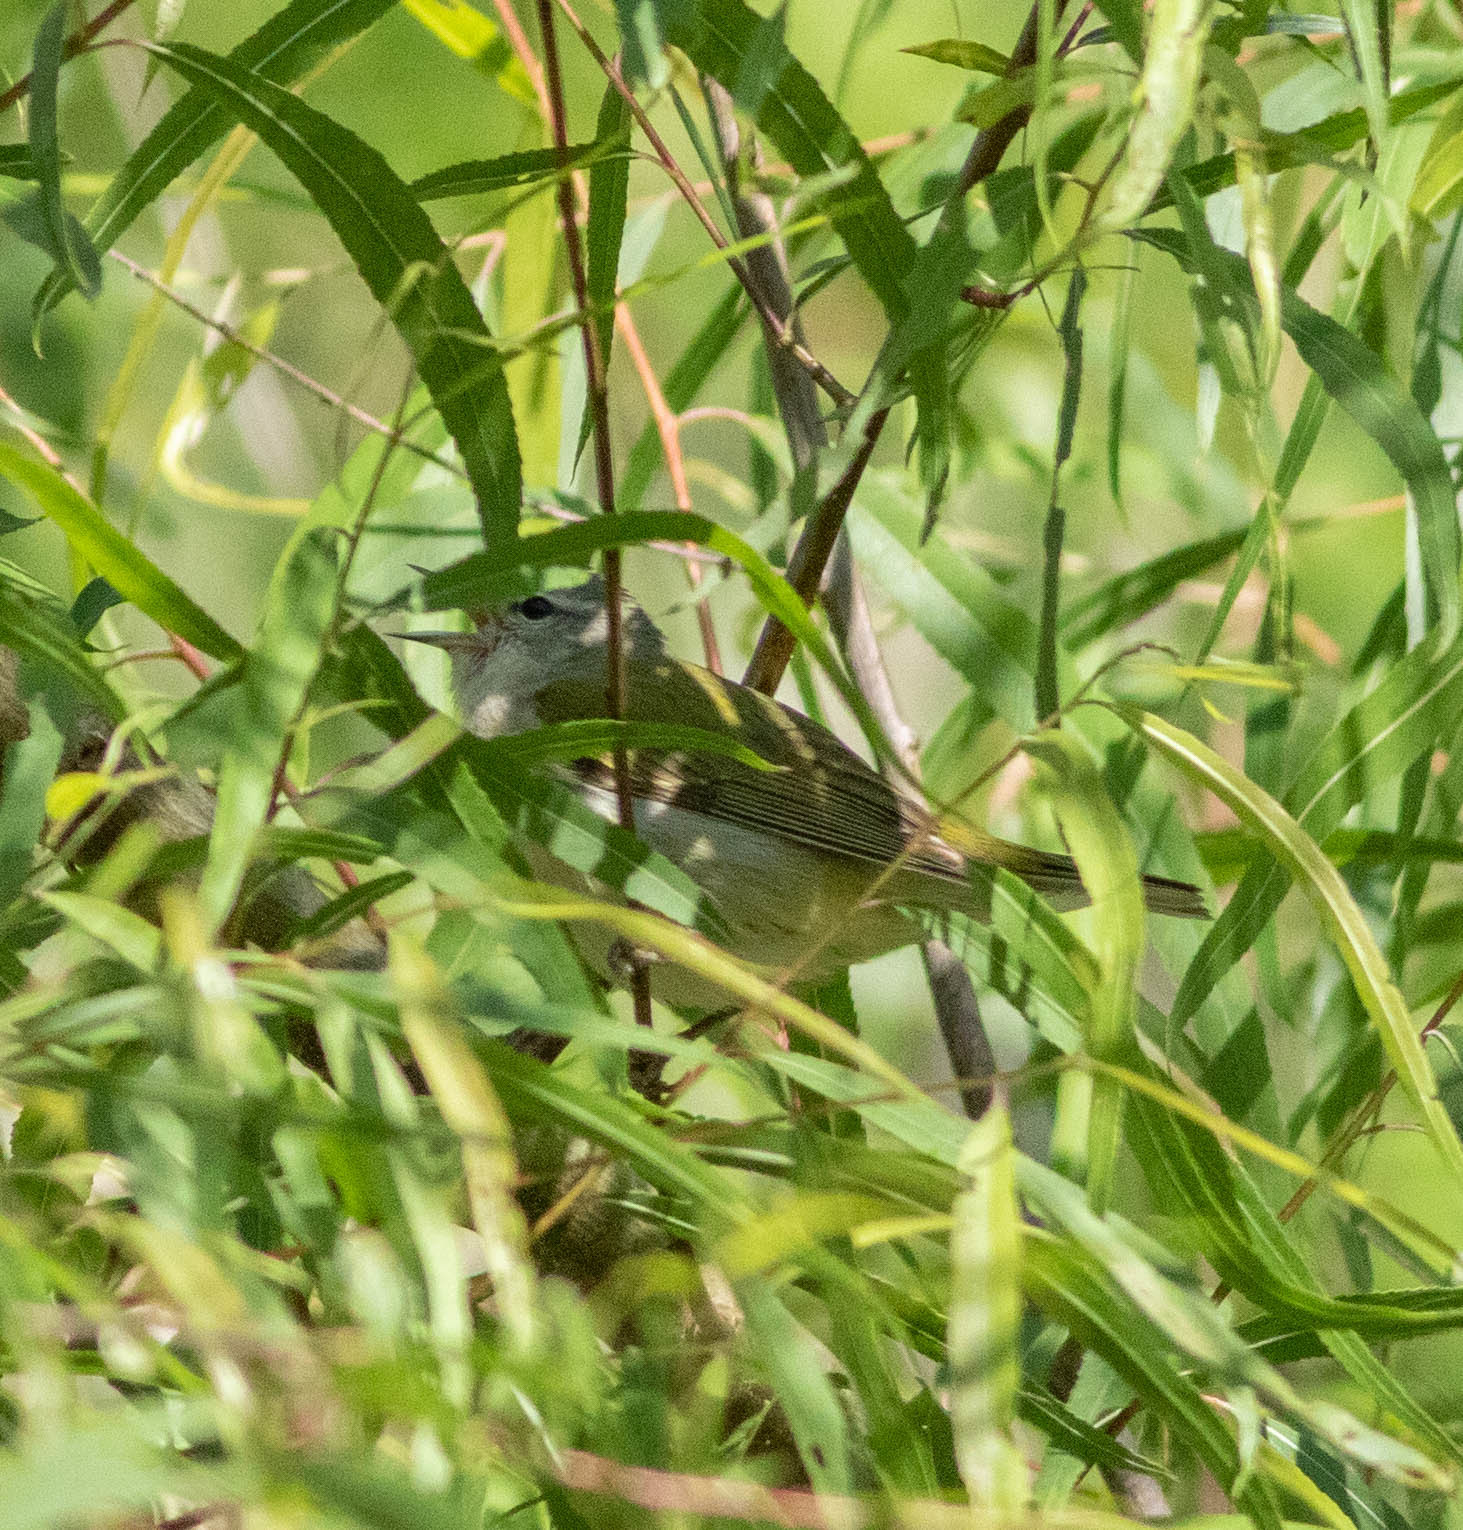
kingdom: Animalia
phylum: Chordata
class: Aves
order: Passeriformes
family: Parulidae
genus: Leiothlypis
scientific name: Leiothlypis peregrina
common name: Tennessee warbler
